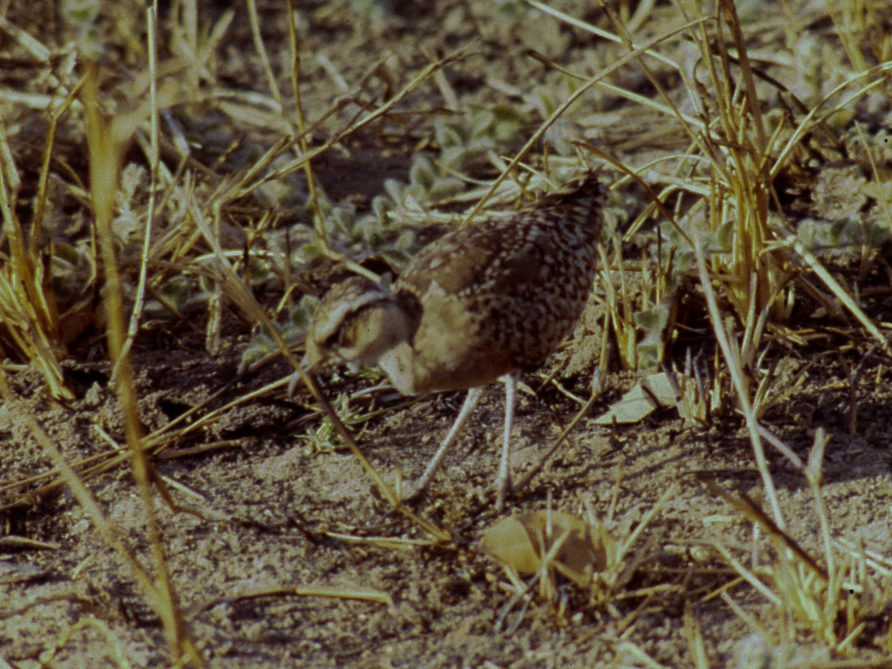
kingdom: Animalia
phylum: Chordata
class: Aves
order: Charadriiformes
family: Glareolidae
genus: Cursorius
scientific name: Cursorius temminckii
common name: Temminck's courser
